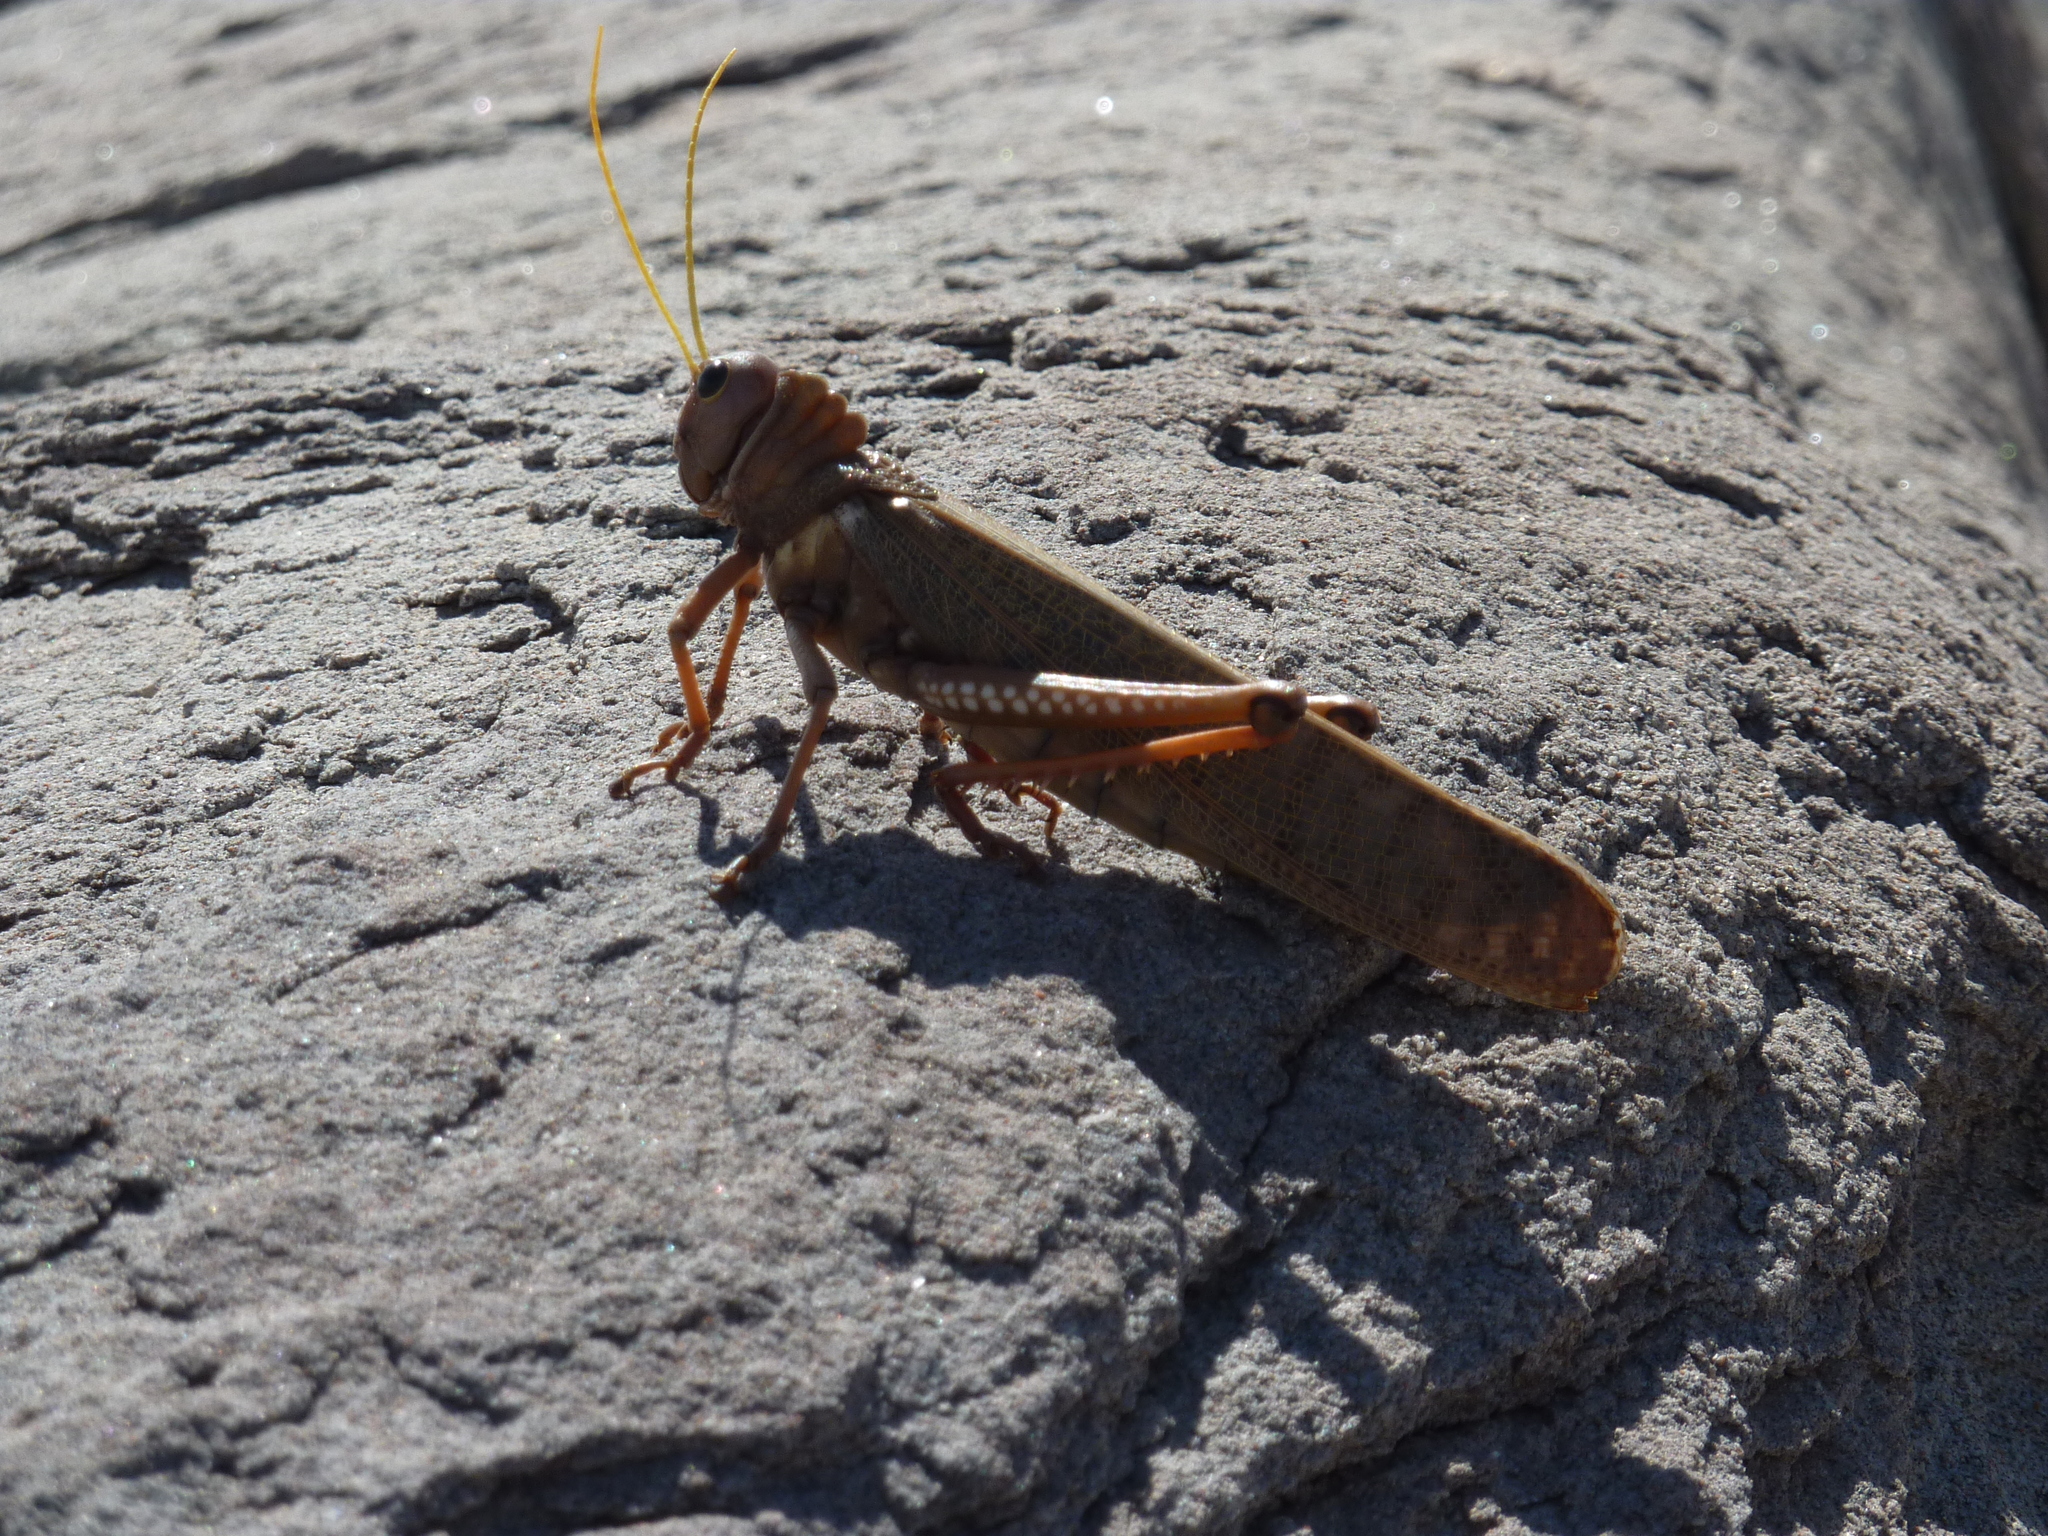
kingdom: Animalia
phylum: Arthropoda
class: Insecta
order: Orthoptera
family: Romaleidae
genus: Tropidacris
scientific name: Tropidacris collaris
